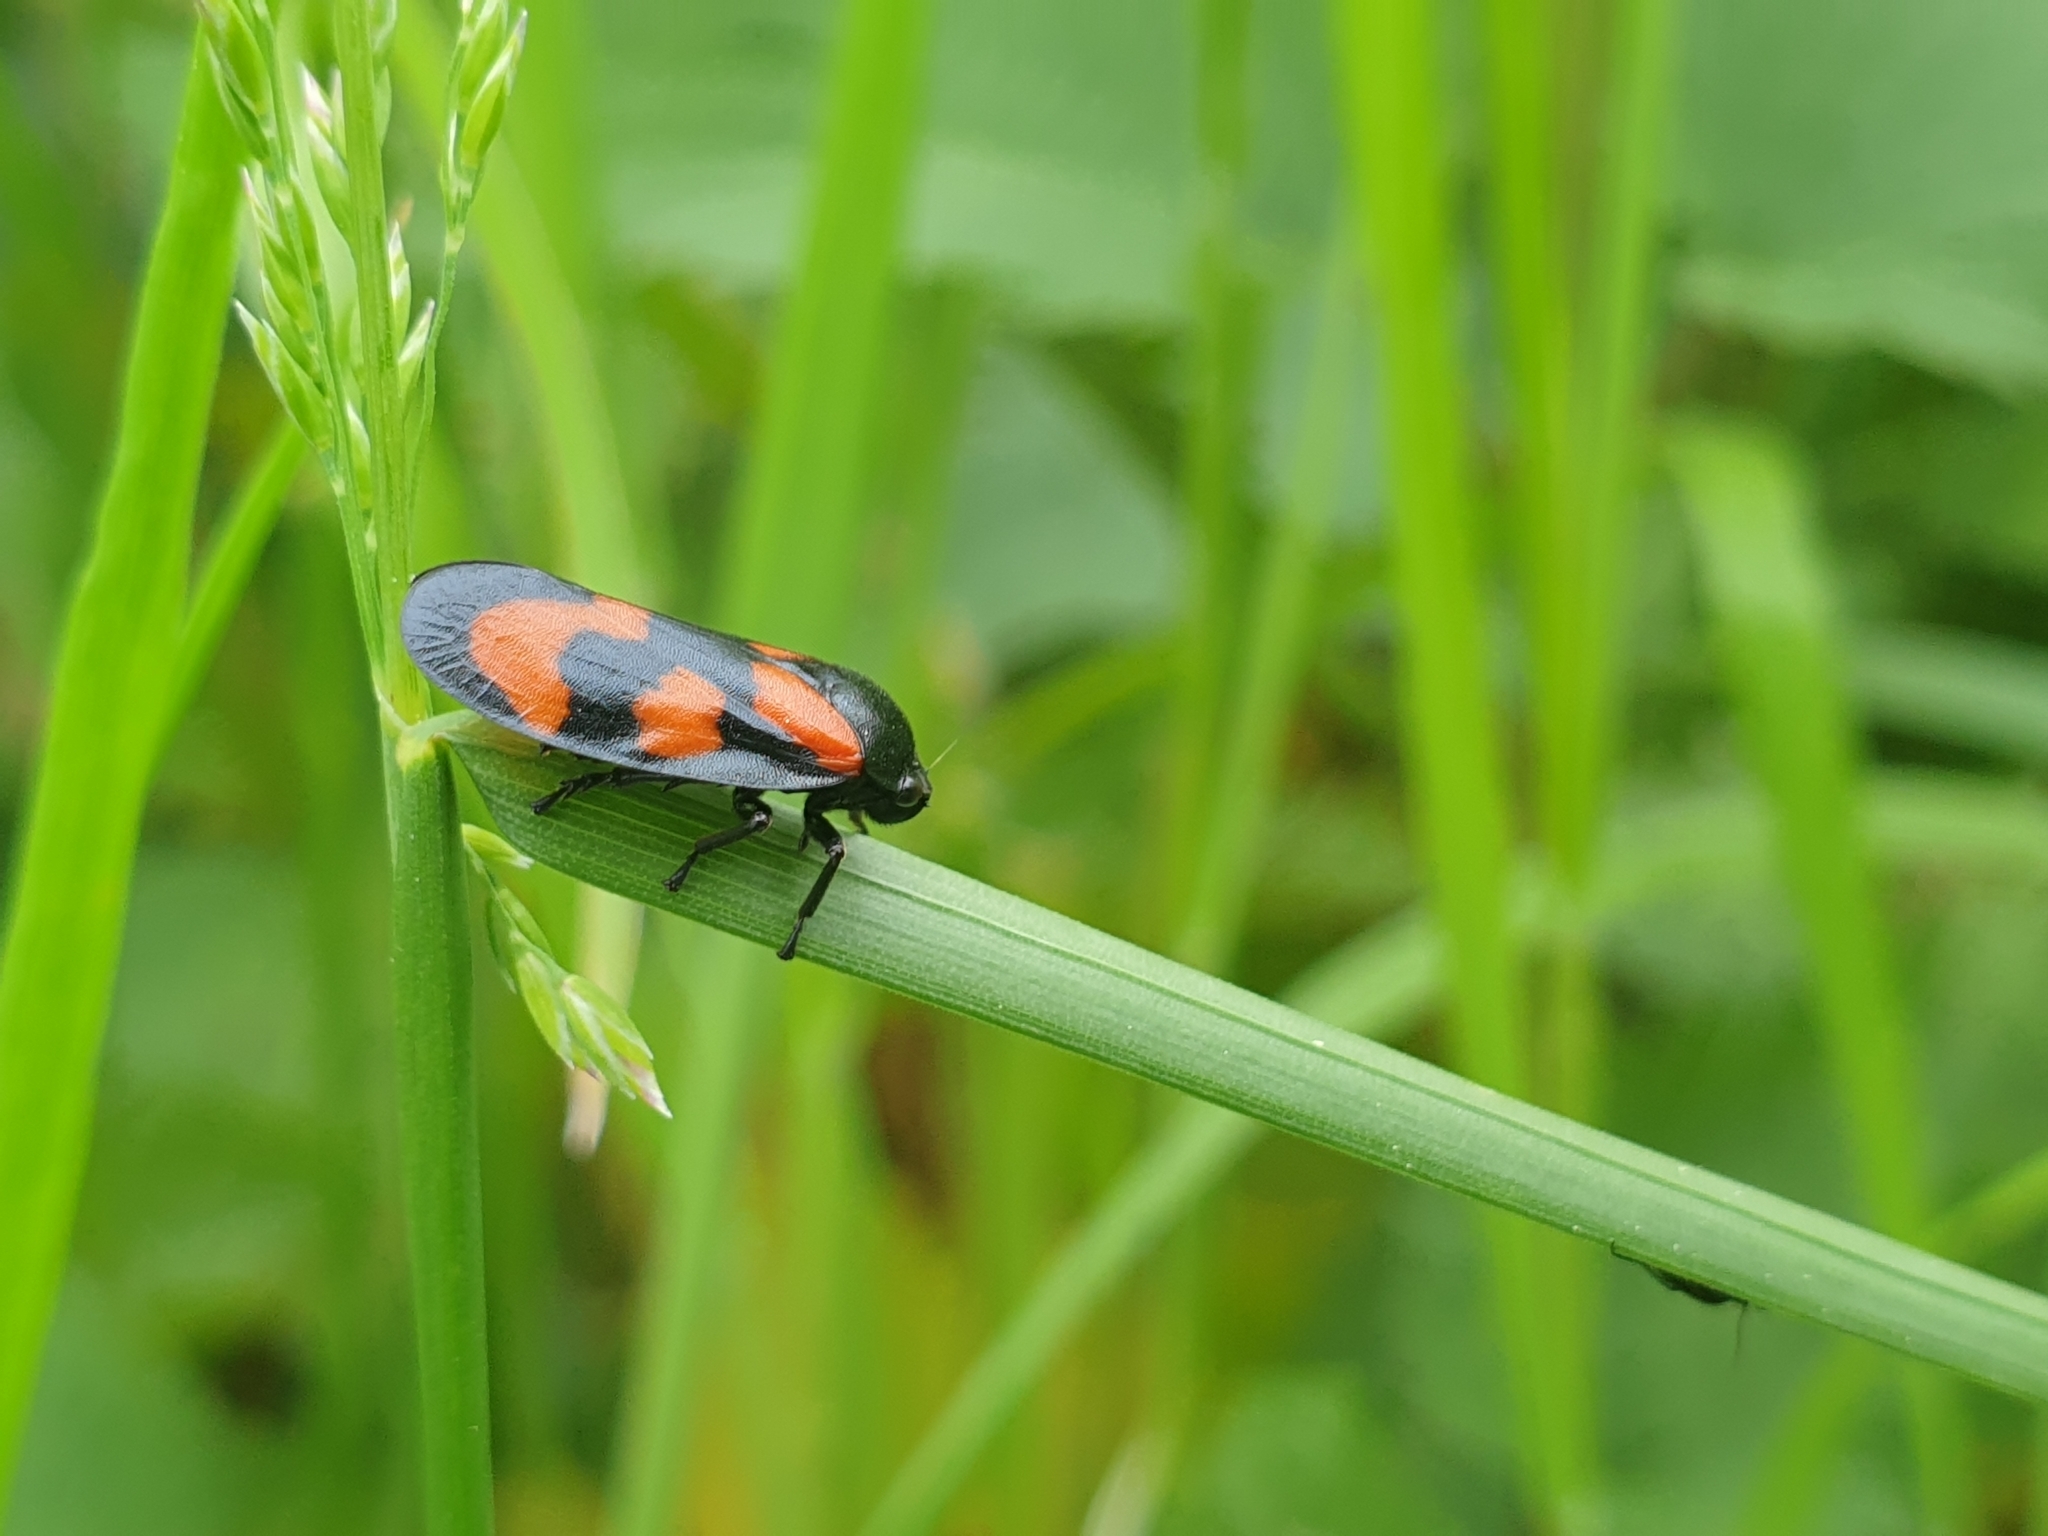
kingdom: Animalia
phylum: Arthropoda
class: Insecta
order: Hemiptera
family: Cercopidae
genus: Cercopis
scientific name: Cercopis vulnerata
